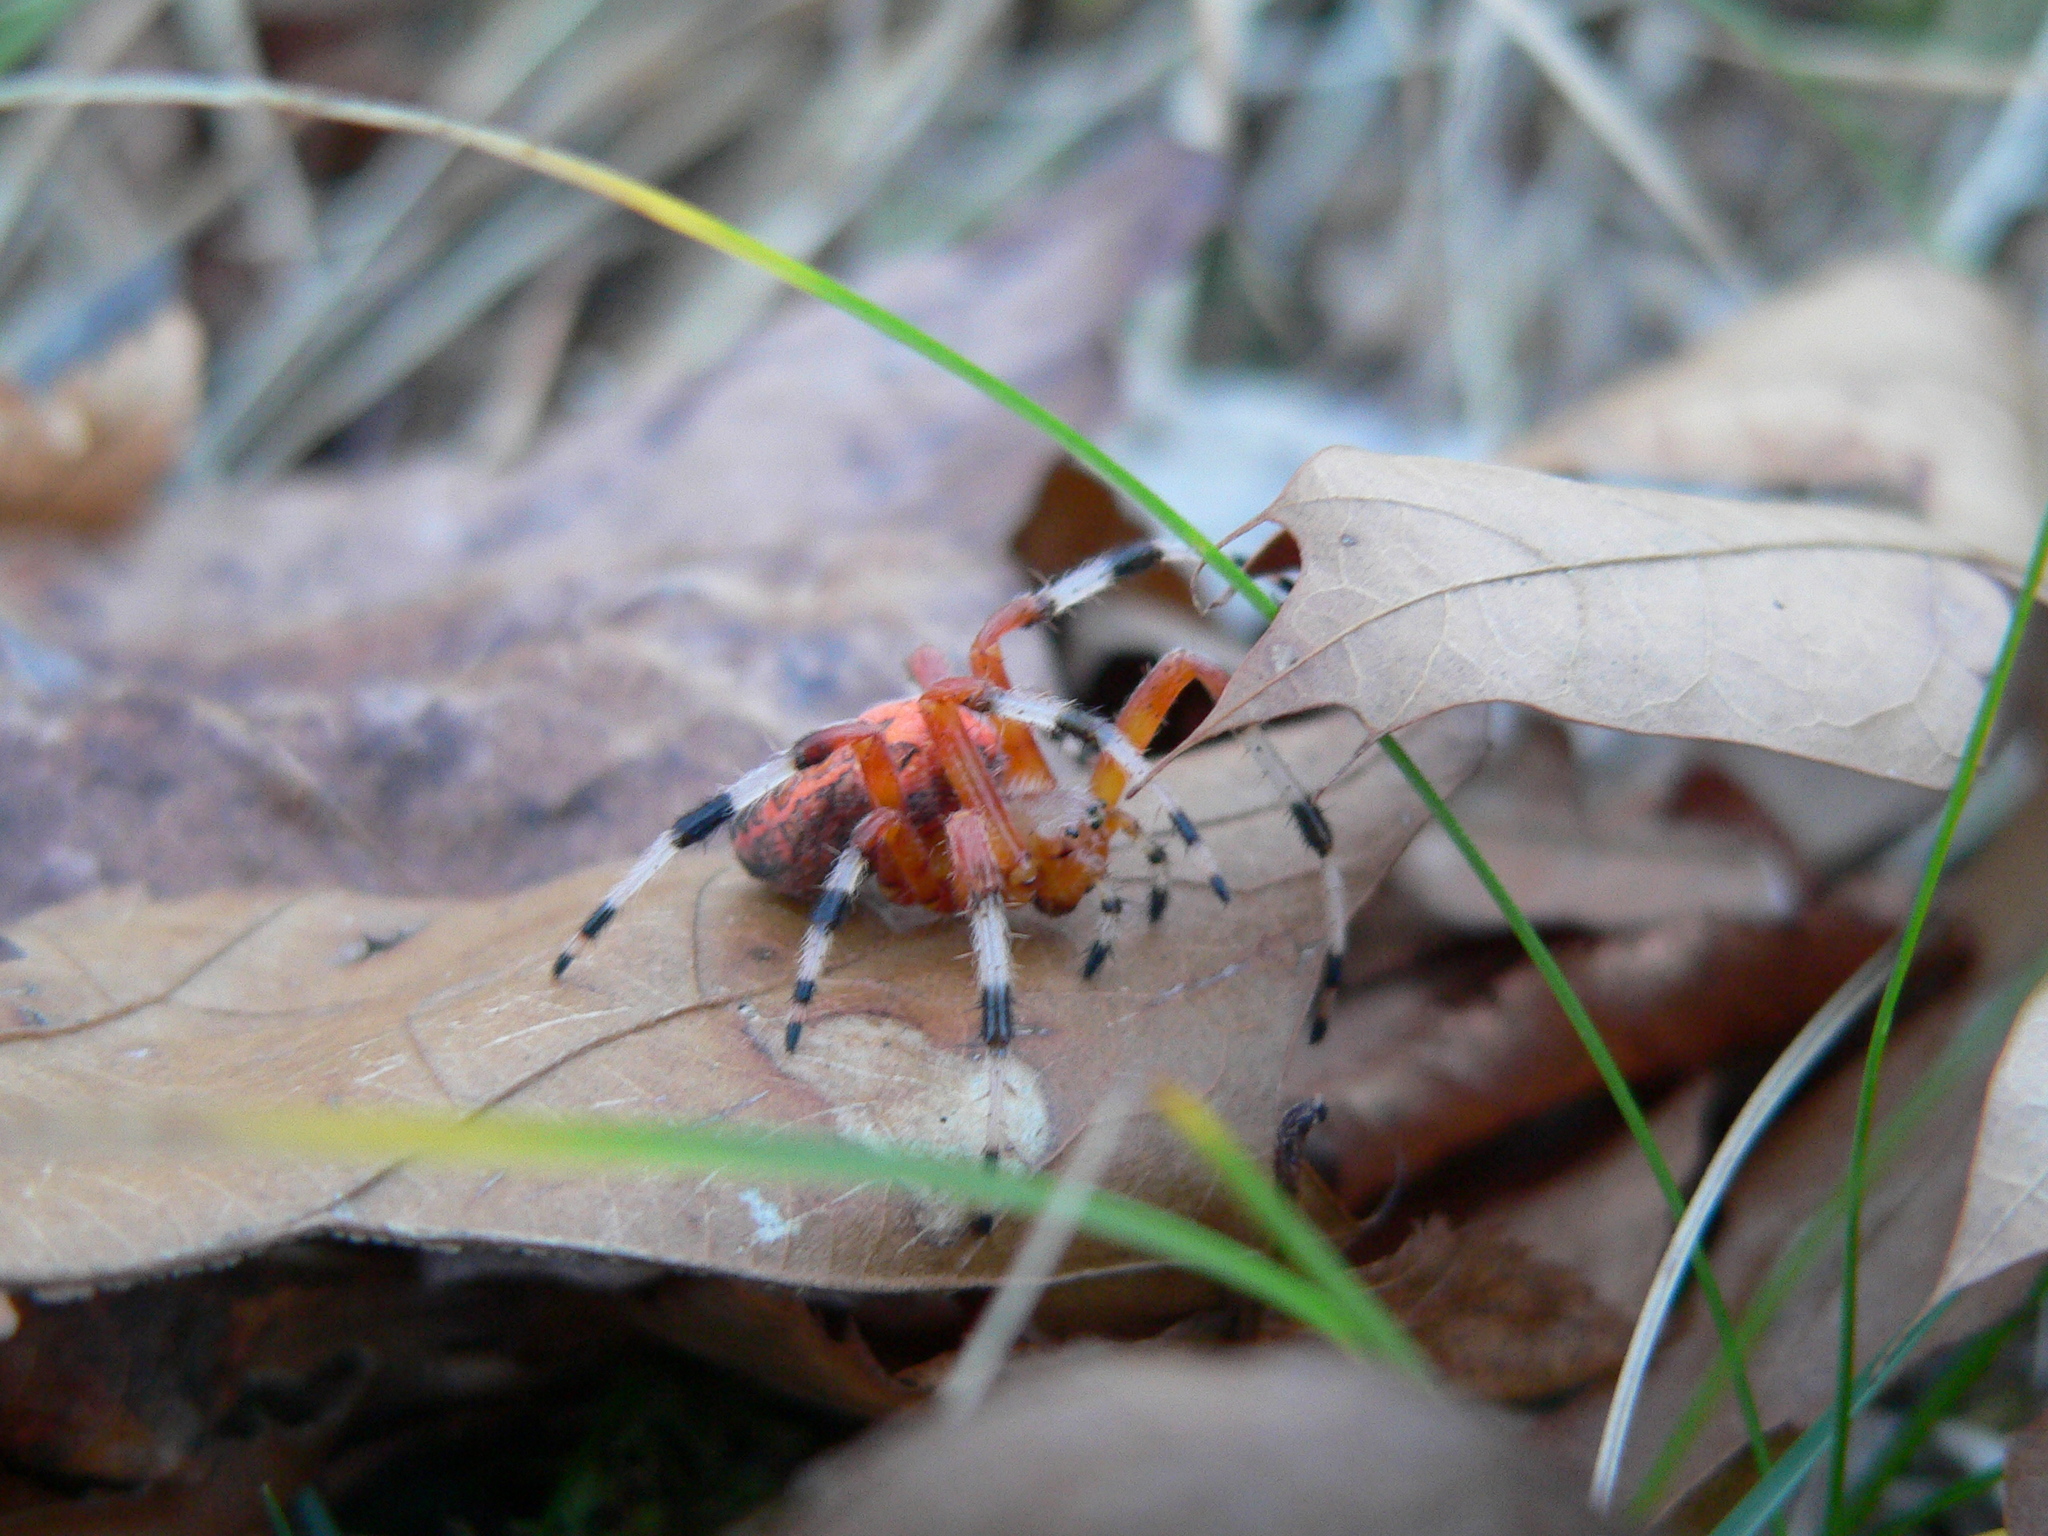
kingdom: Animalia
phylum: Arthropoda
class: Arachnida
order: Araneae
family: Araneidae
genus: Araneus
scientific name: Araneus marmoreus
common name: Marbled orbweaver
